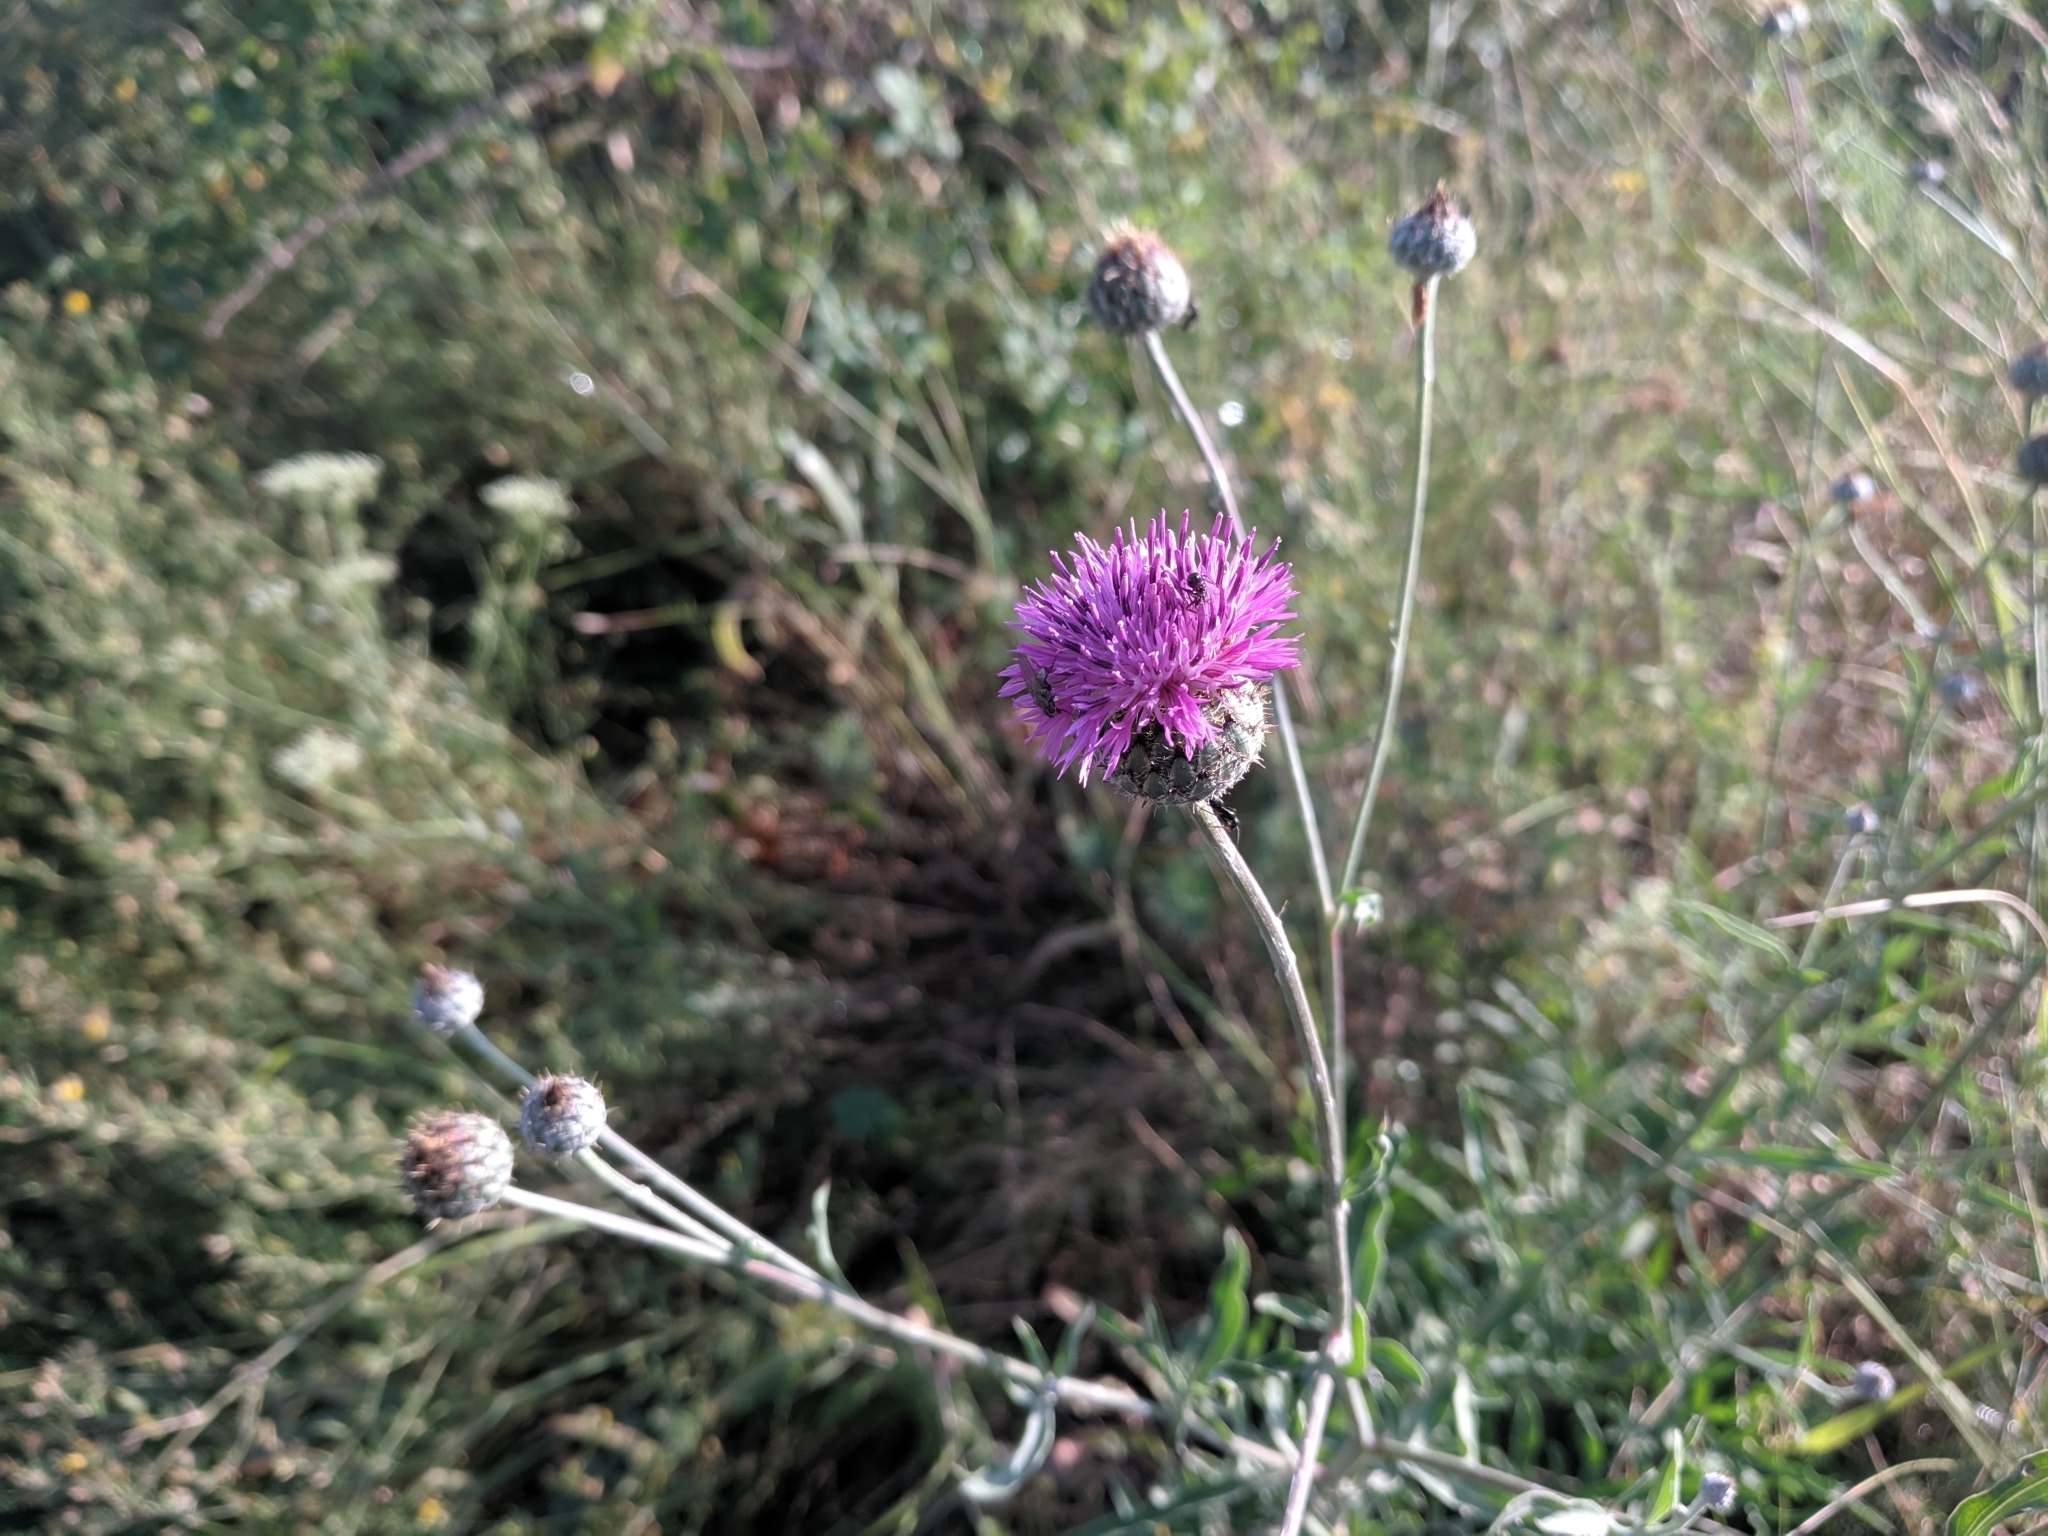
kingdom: Plantae
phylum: Tracheophyta
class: Magnoliopsida
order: Asterales
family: Asteraceae
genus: Centaurea
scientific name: Centaurea scabiosa
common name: Greater knapweed
